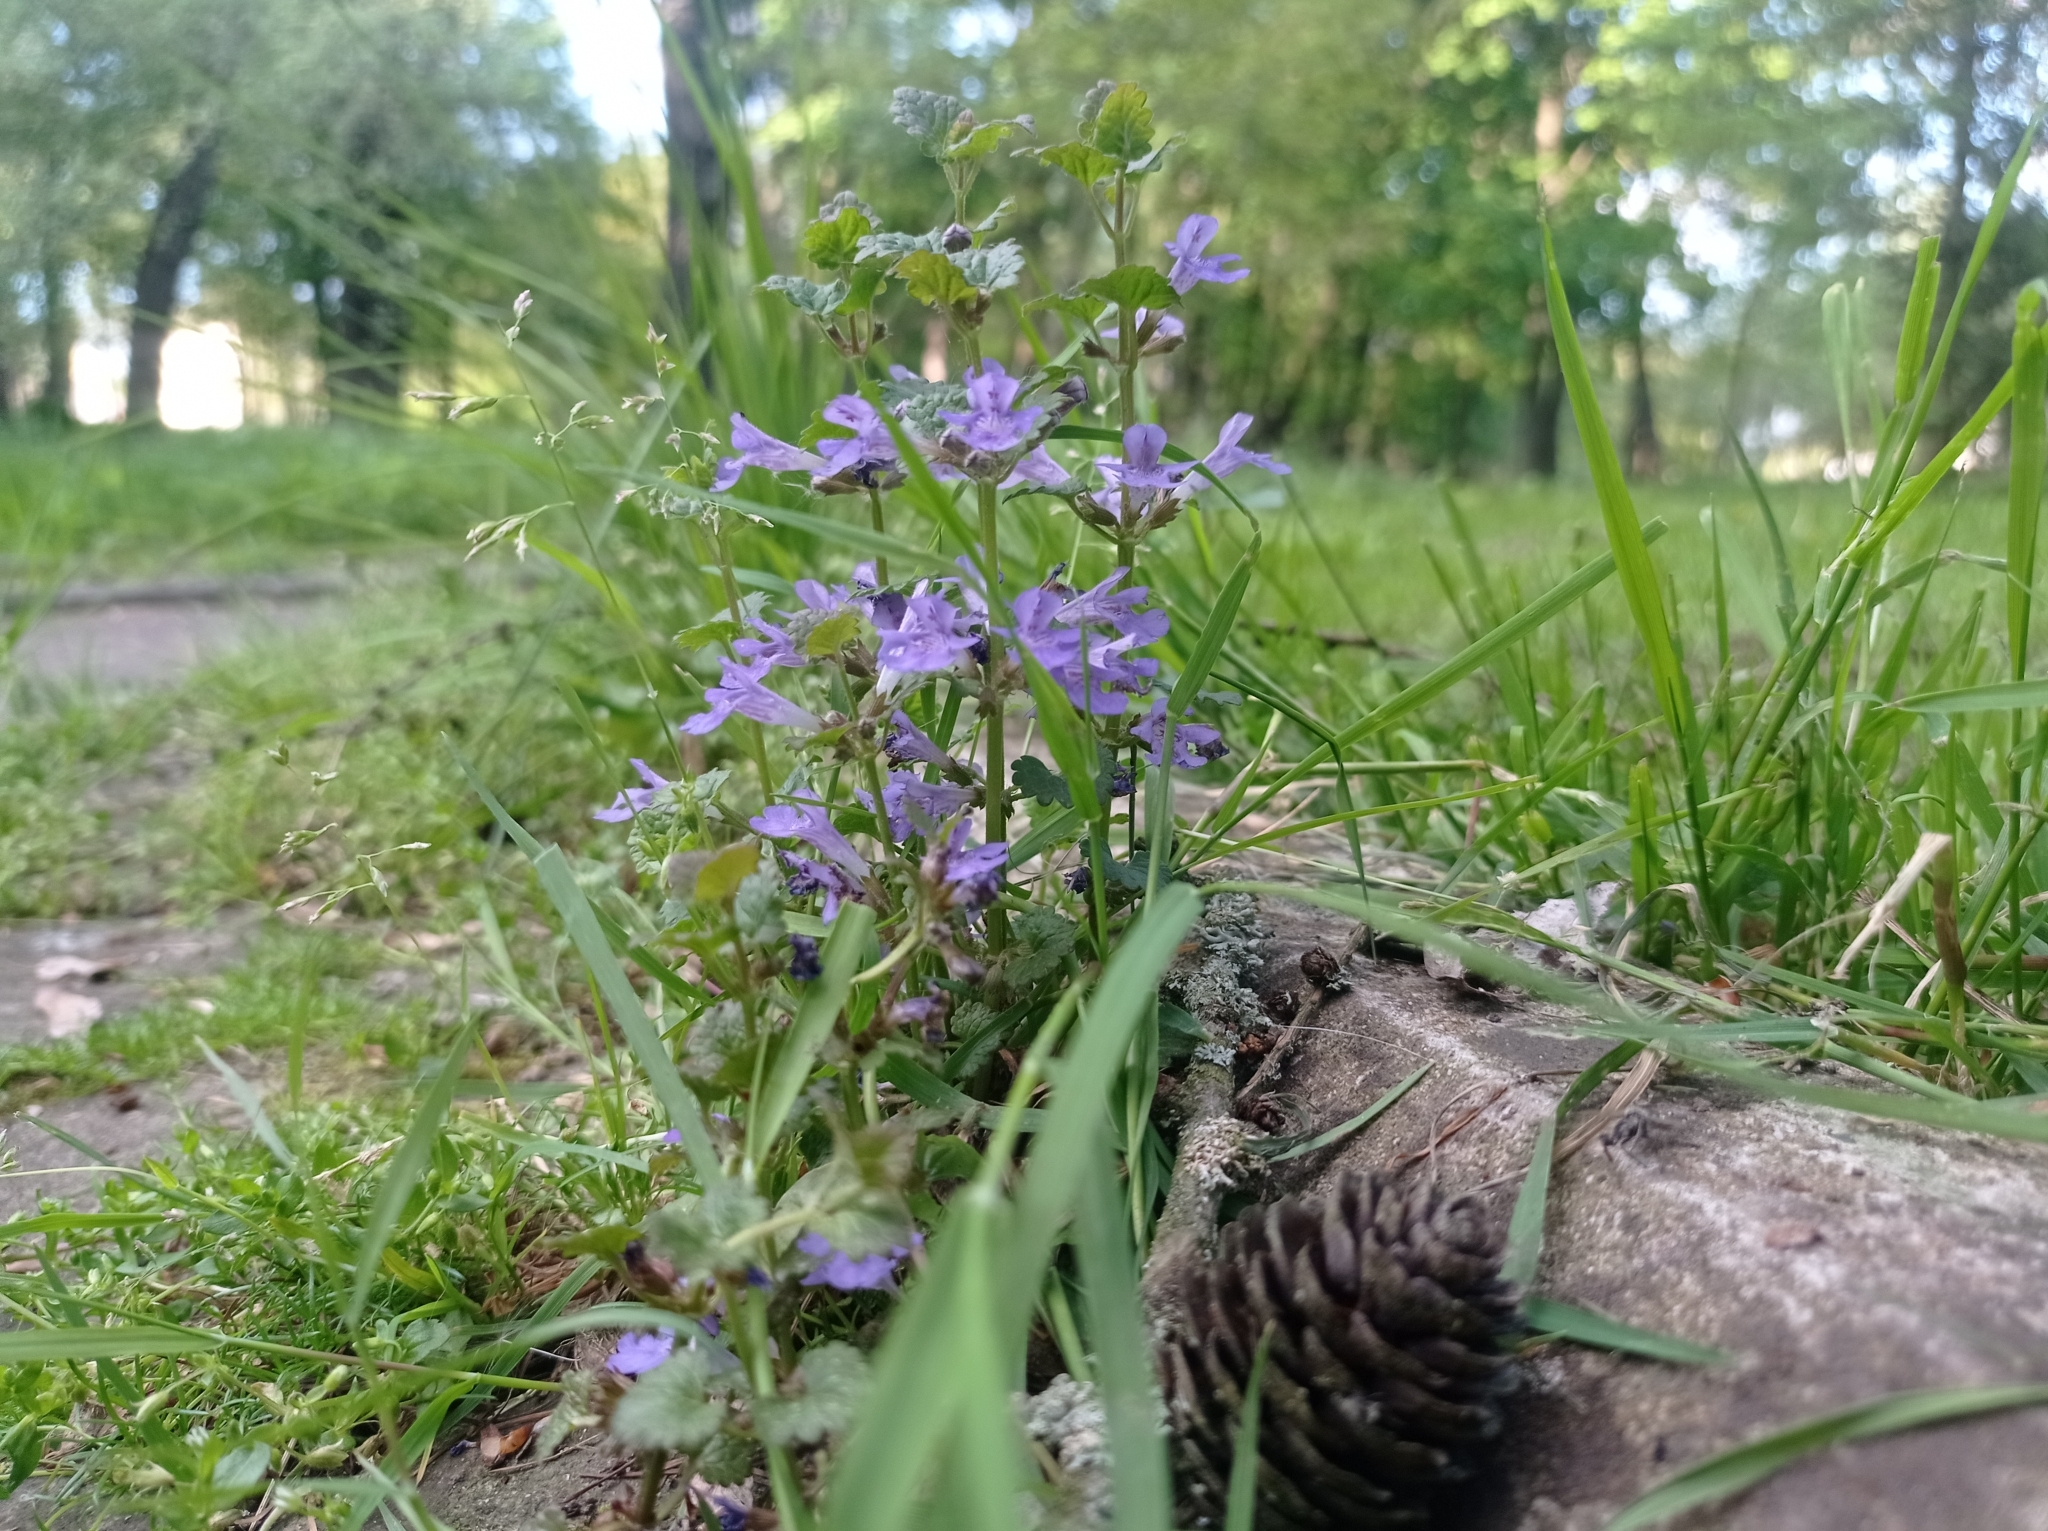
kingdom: Plantae
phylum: Tracheophyta
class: Magnoliopsida
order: Lamiales
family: Lamiaceae
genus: Glechoma
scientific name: Glechoma hederacea
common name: Ground ivy
